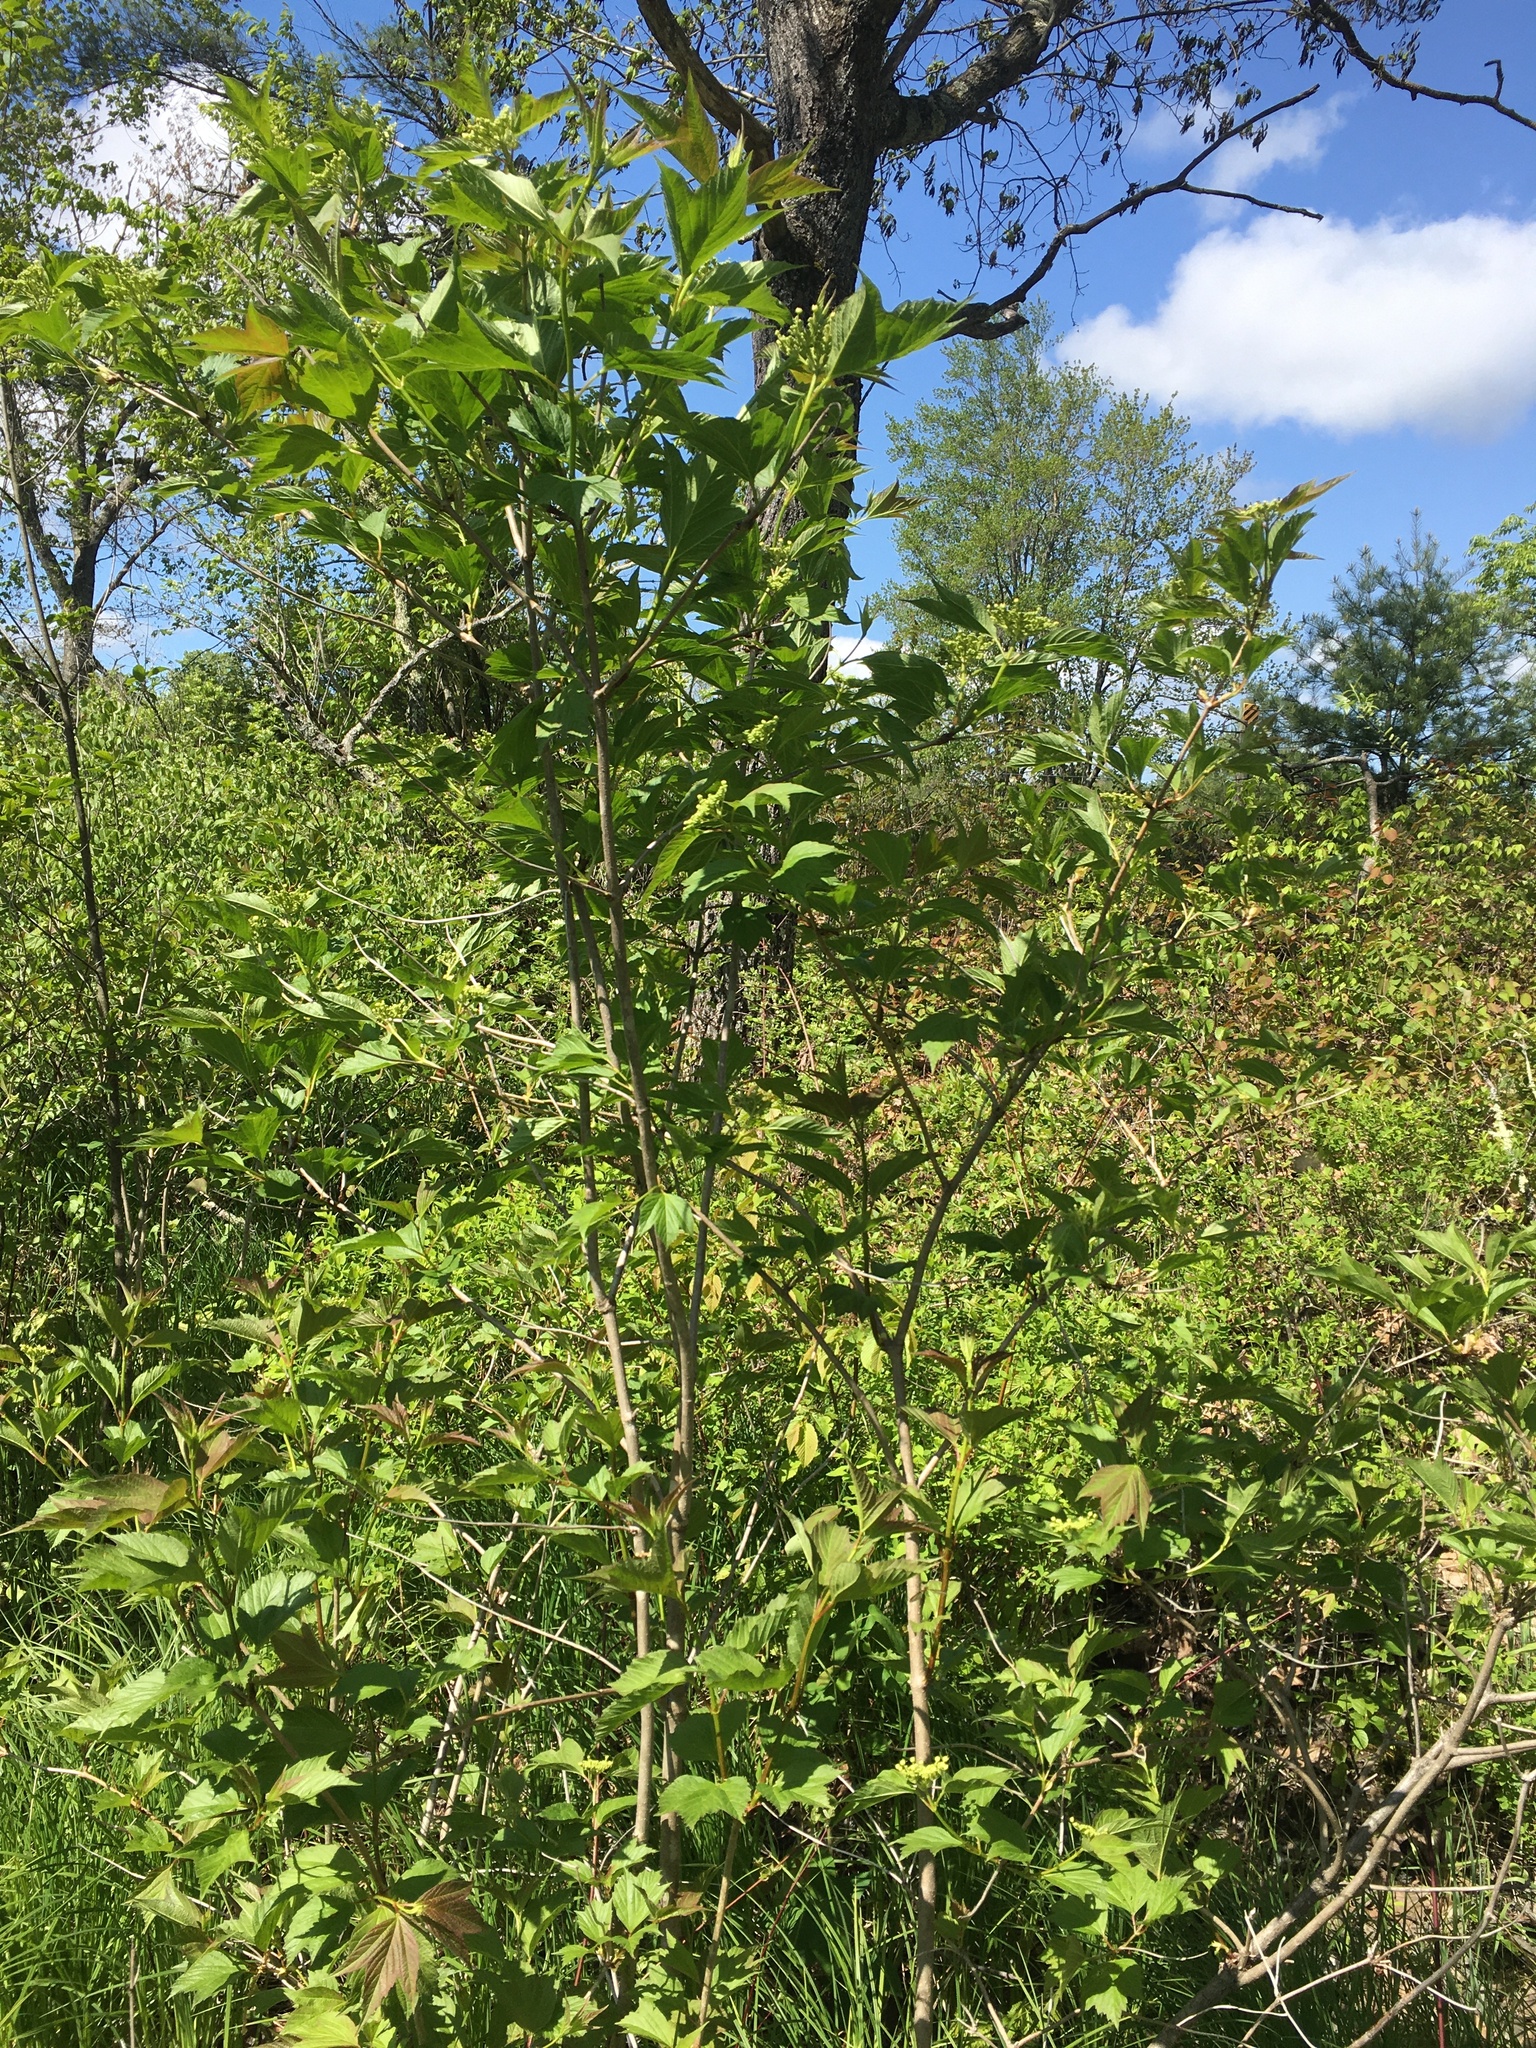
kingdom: Plantae
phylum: Tracheophyta
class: Magnoliopsida
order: Dipsacales
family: Viburnaceae
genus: Viburnum
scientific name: Viburnum opulus
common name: Guelder-rose
